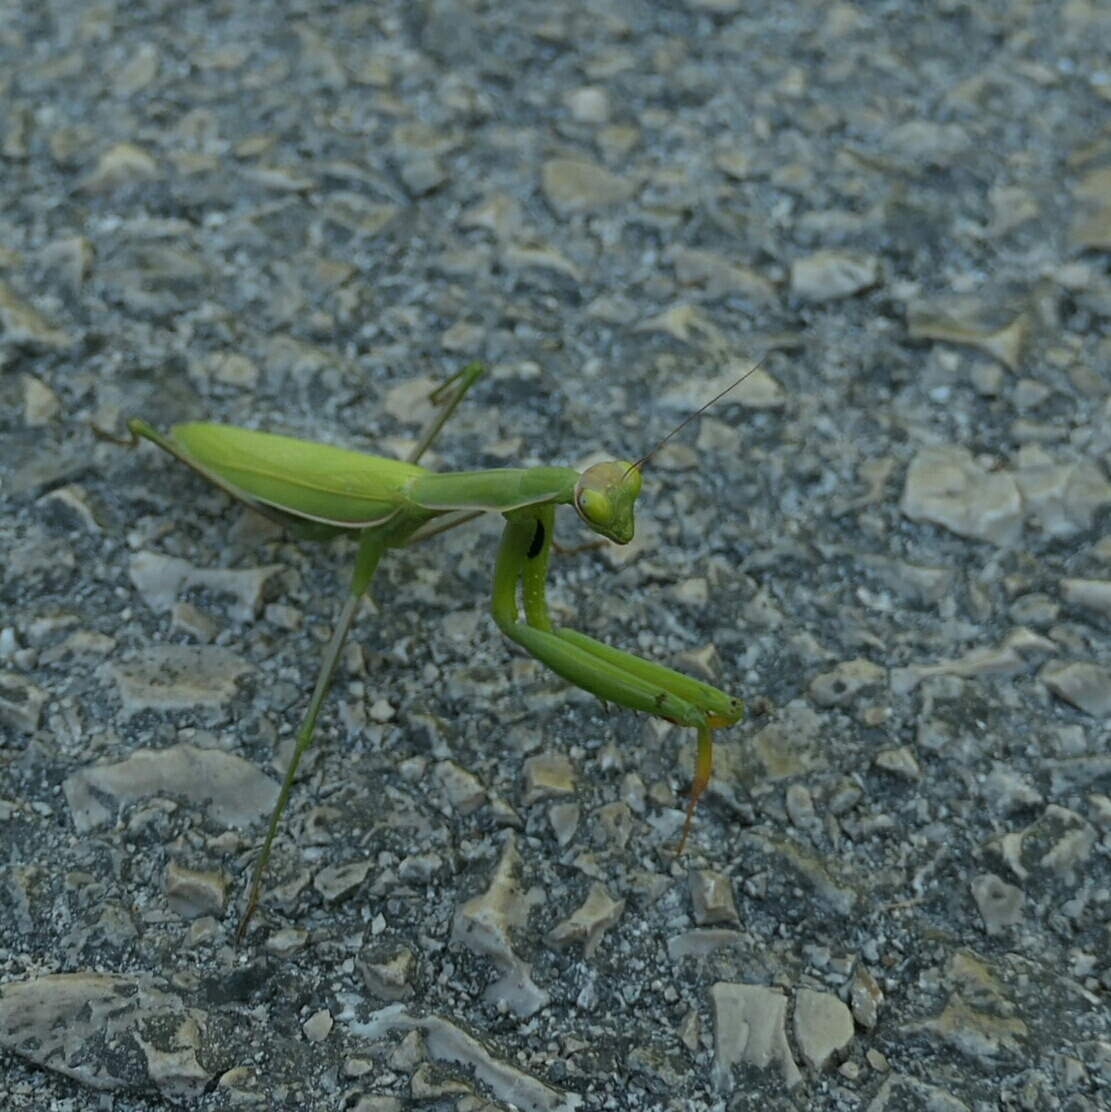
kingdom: Animalia
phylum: Arthropoda
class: Insecta
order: Mantodea
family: Mantidae
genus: Mantis
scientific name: Mantis religiosa
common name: Praying mantis
